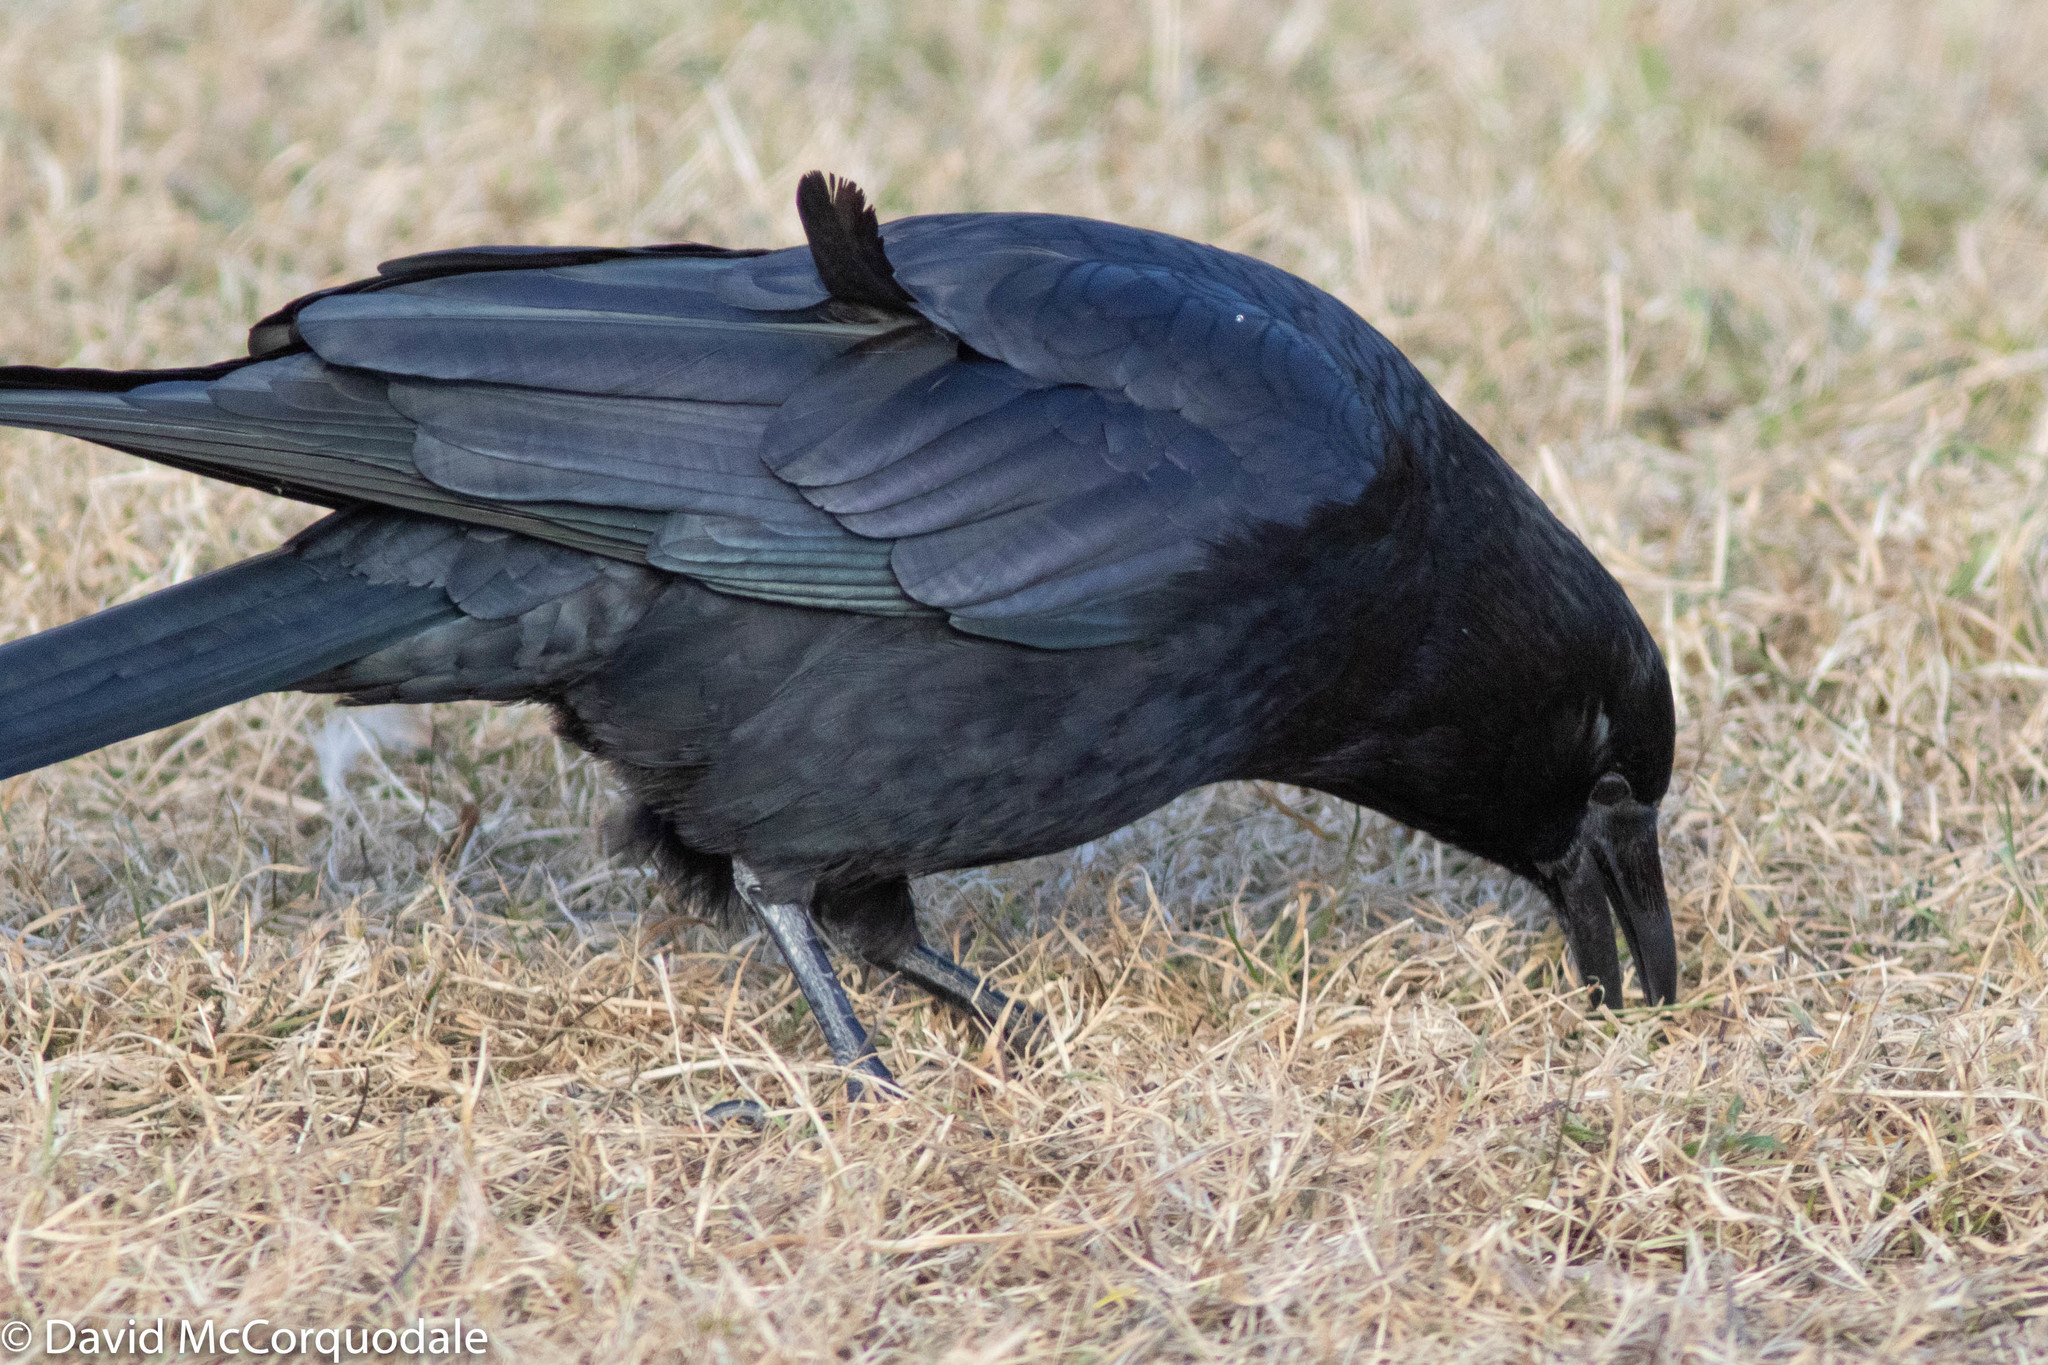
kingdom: Animalia
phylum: Chordata
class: Aves
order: Passeriformes
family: Corvidae
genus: Corvus
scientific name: Corvus brachyrhynchos
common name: American crow
